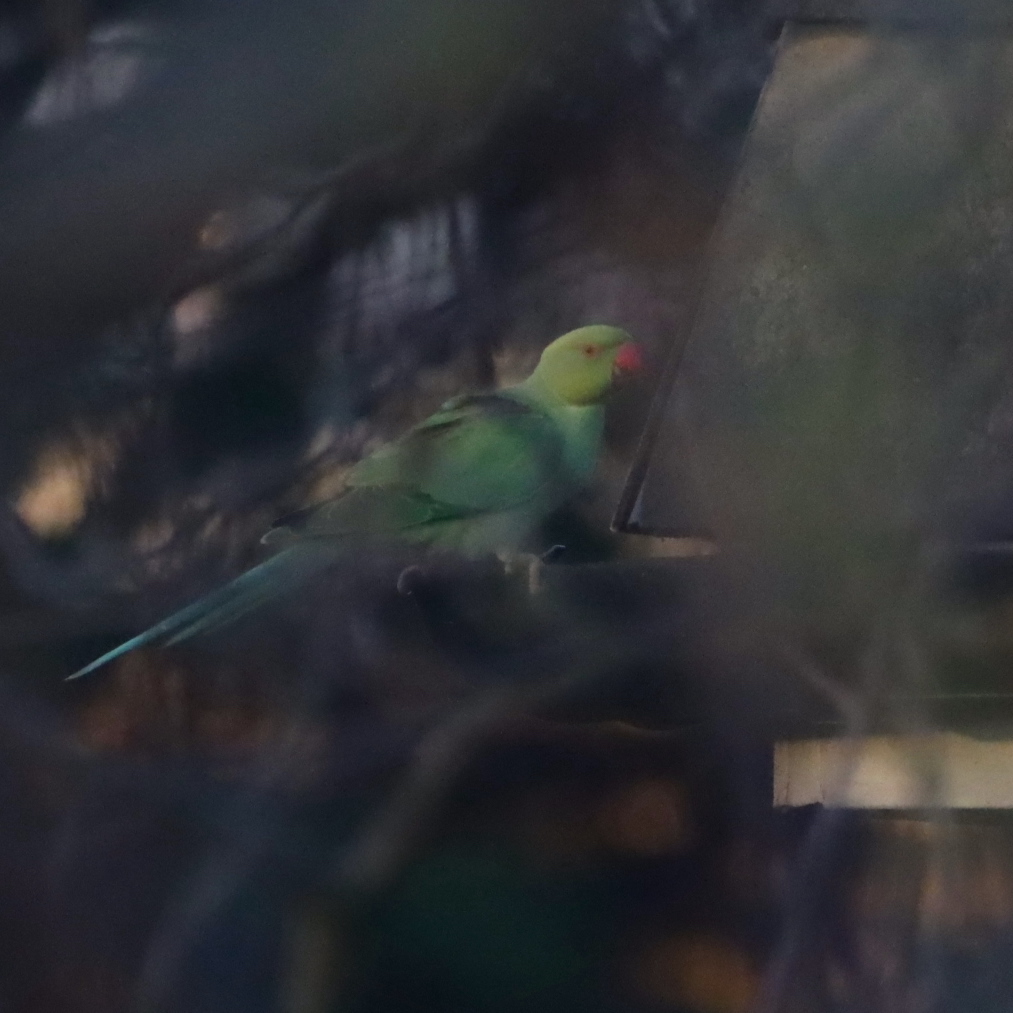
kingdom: Animalia
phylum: Chordata
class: Aves
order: Psittaciformes
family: Psittacidae
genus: Psittacula
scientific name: Psittacula krameri
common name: Rose-ringed parakeet
